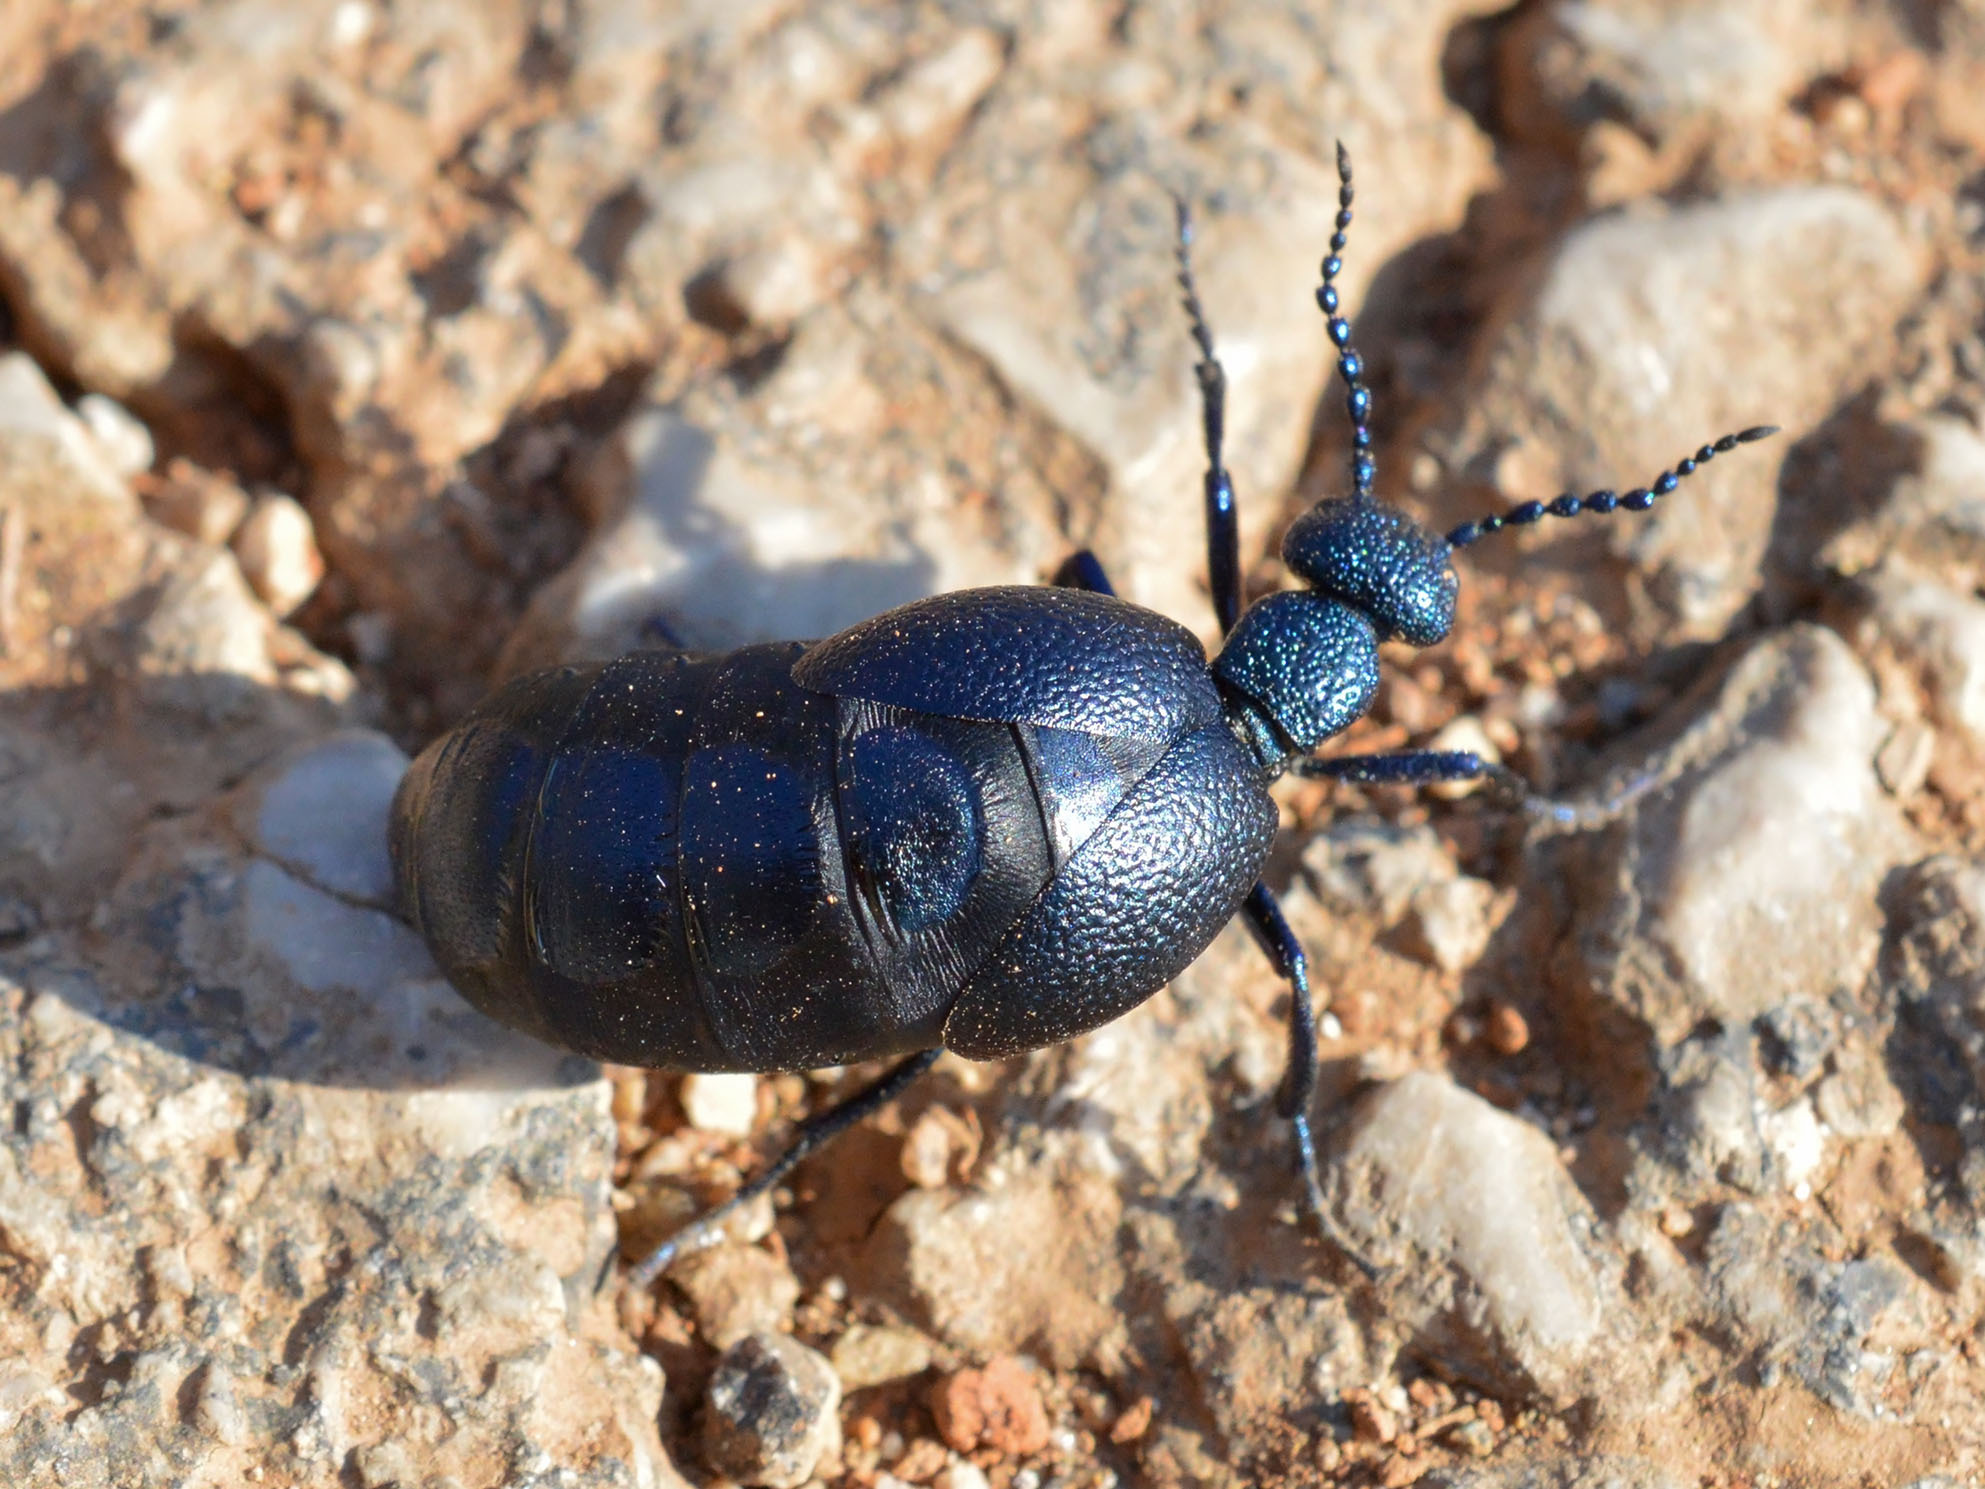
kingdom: Animalia
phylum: Arthropoda
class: Insecta
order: Coleoptera
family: Meloidae
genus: Meloe
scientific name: Meloe proscarabaeus
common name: Black oil-beetle
